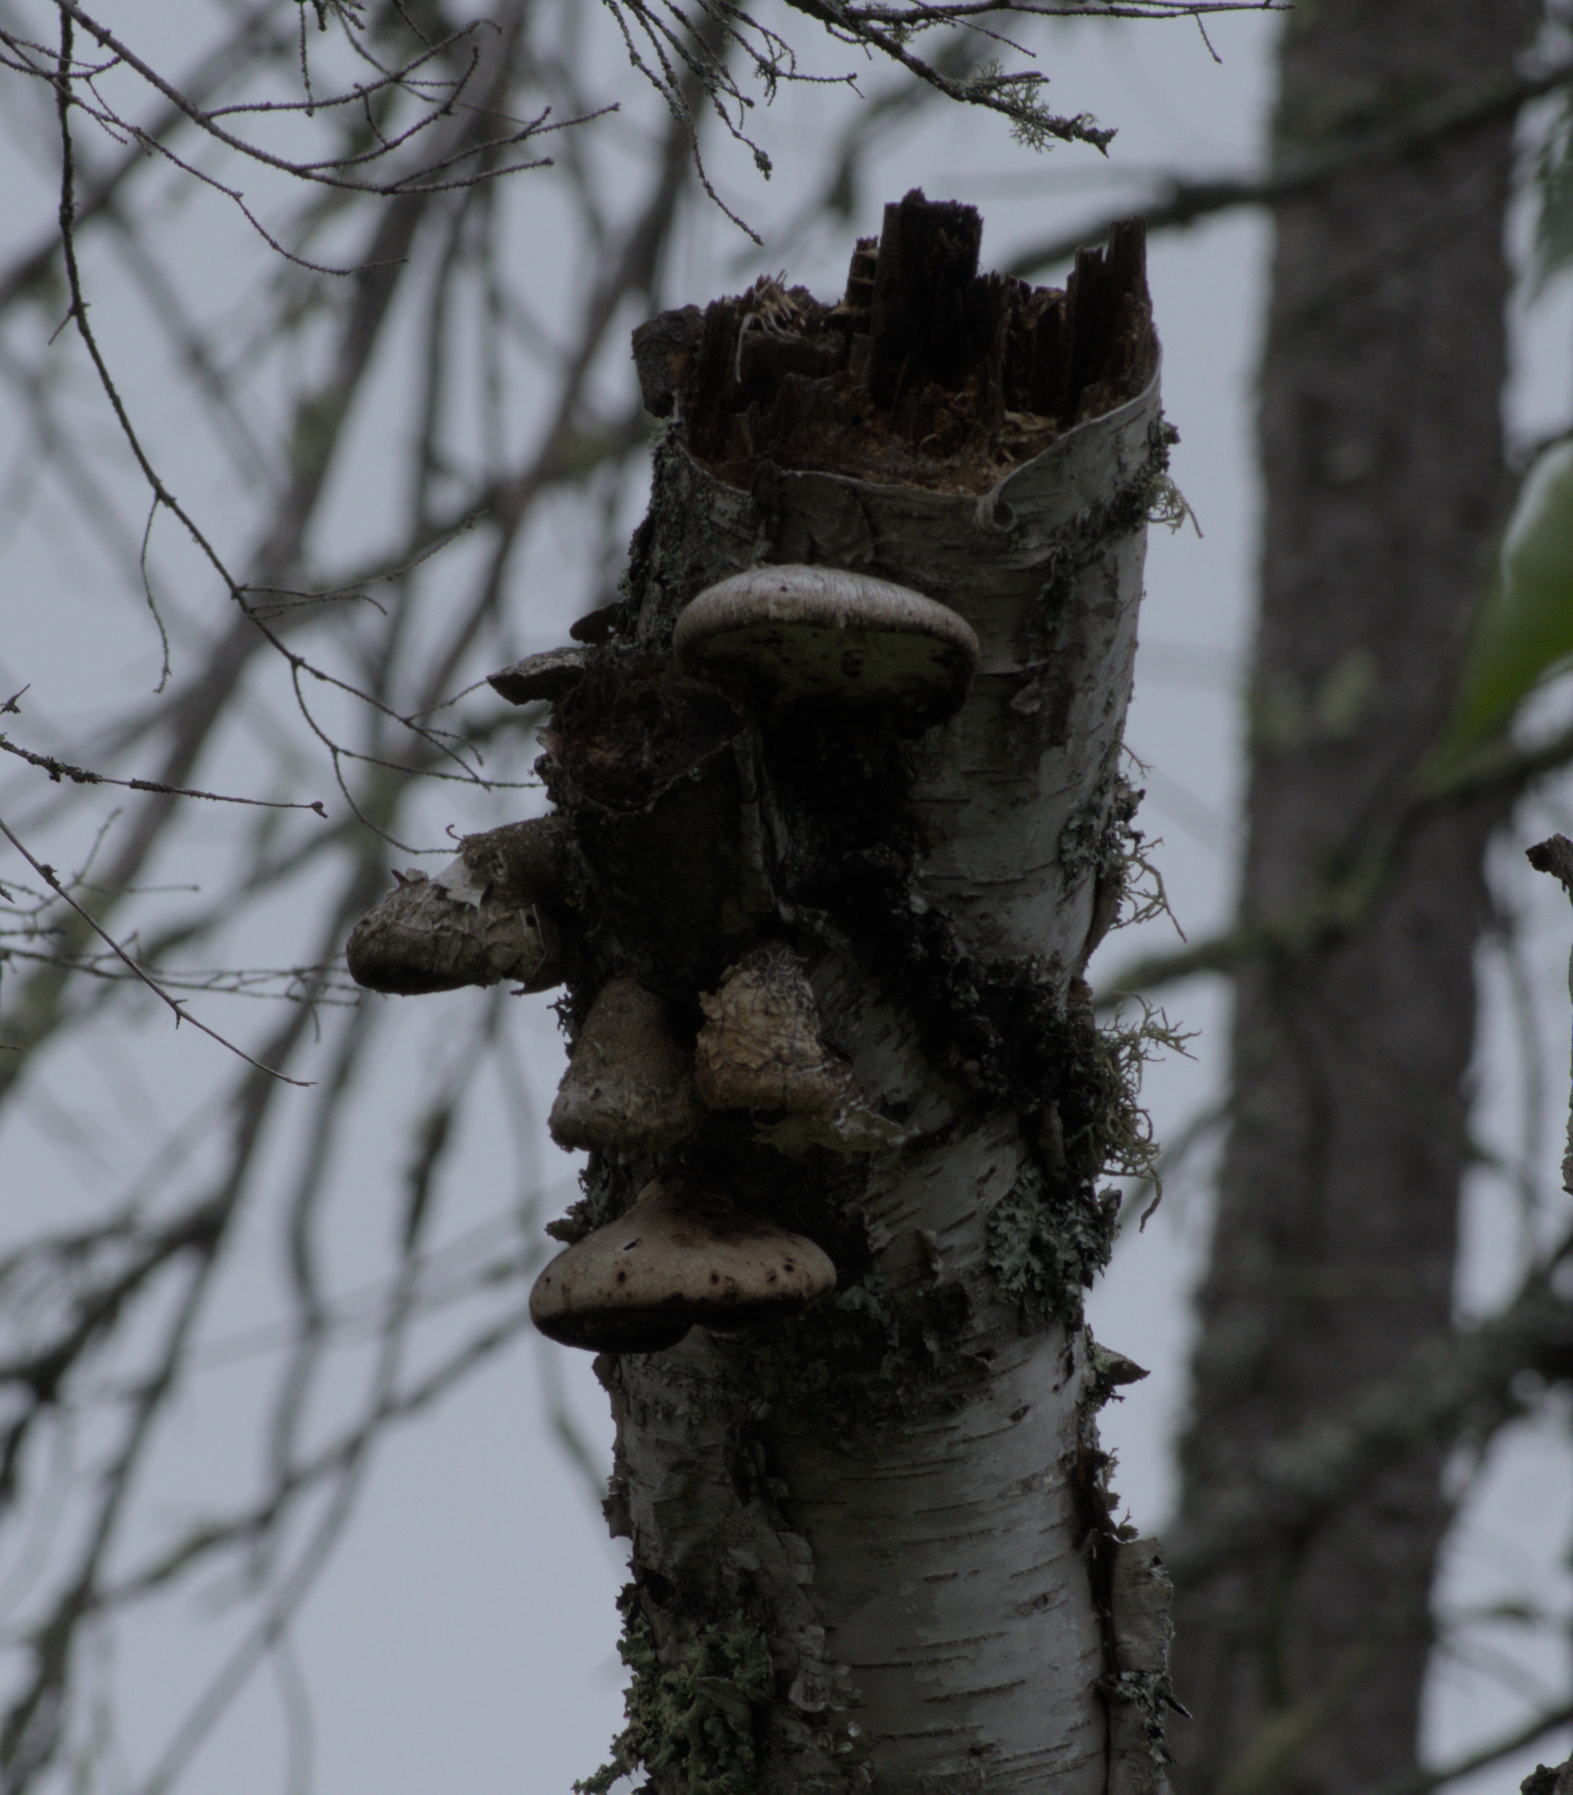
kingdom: Fungi
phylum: Basidiomycota
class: Agaricomycetes
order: Polyporales
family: Fomitopsidaceae
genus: Fomitopsis
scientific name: Fomitopsis betulina
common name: Birch polypore
